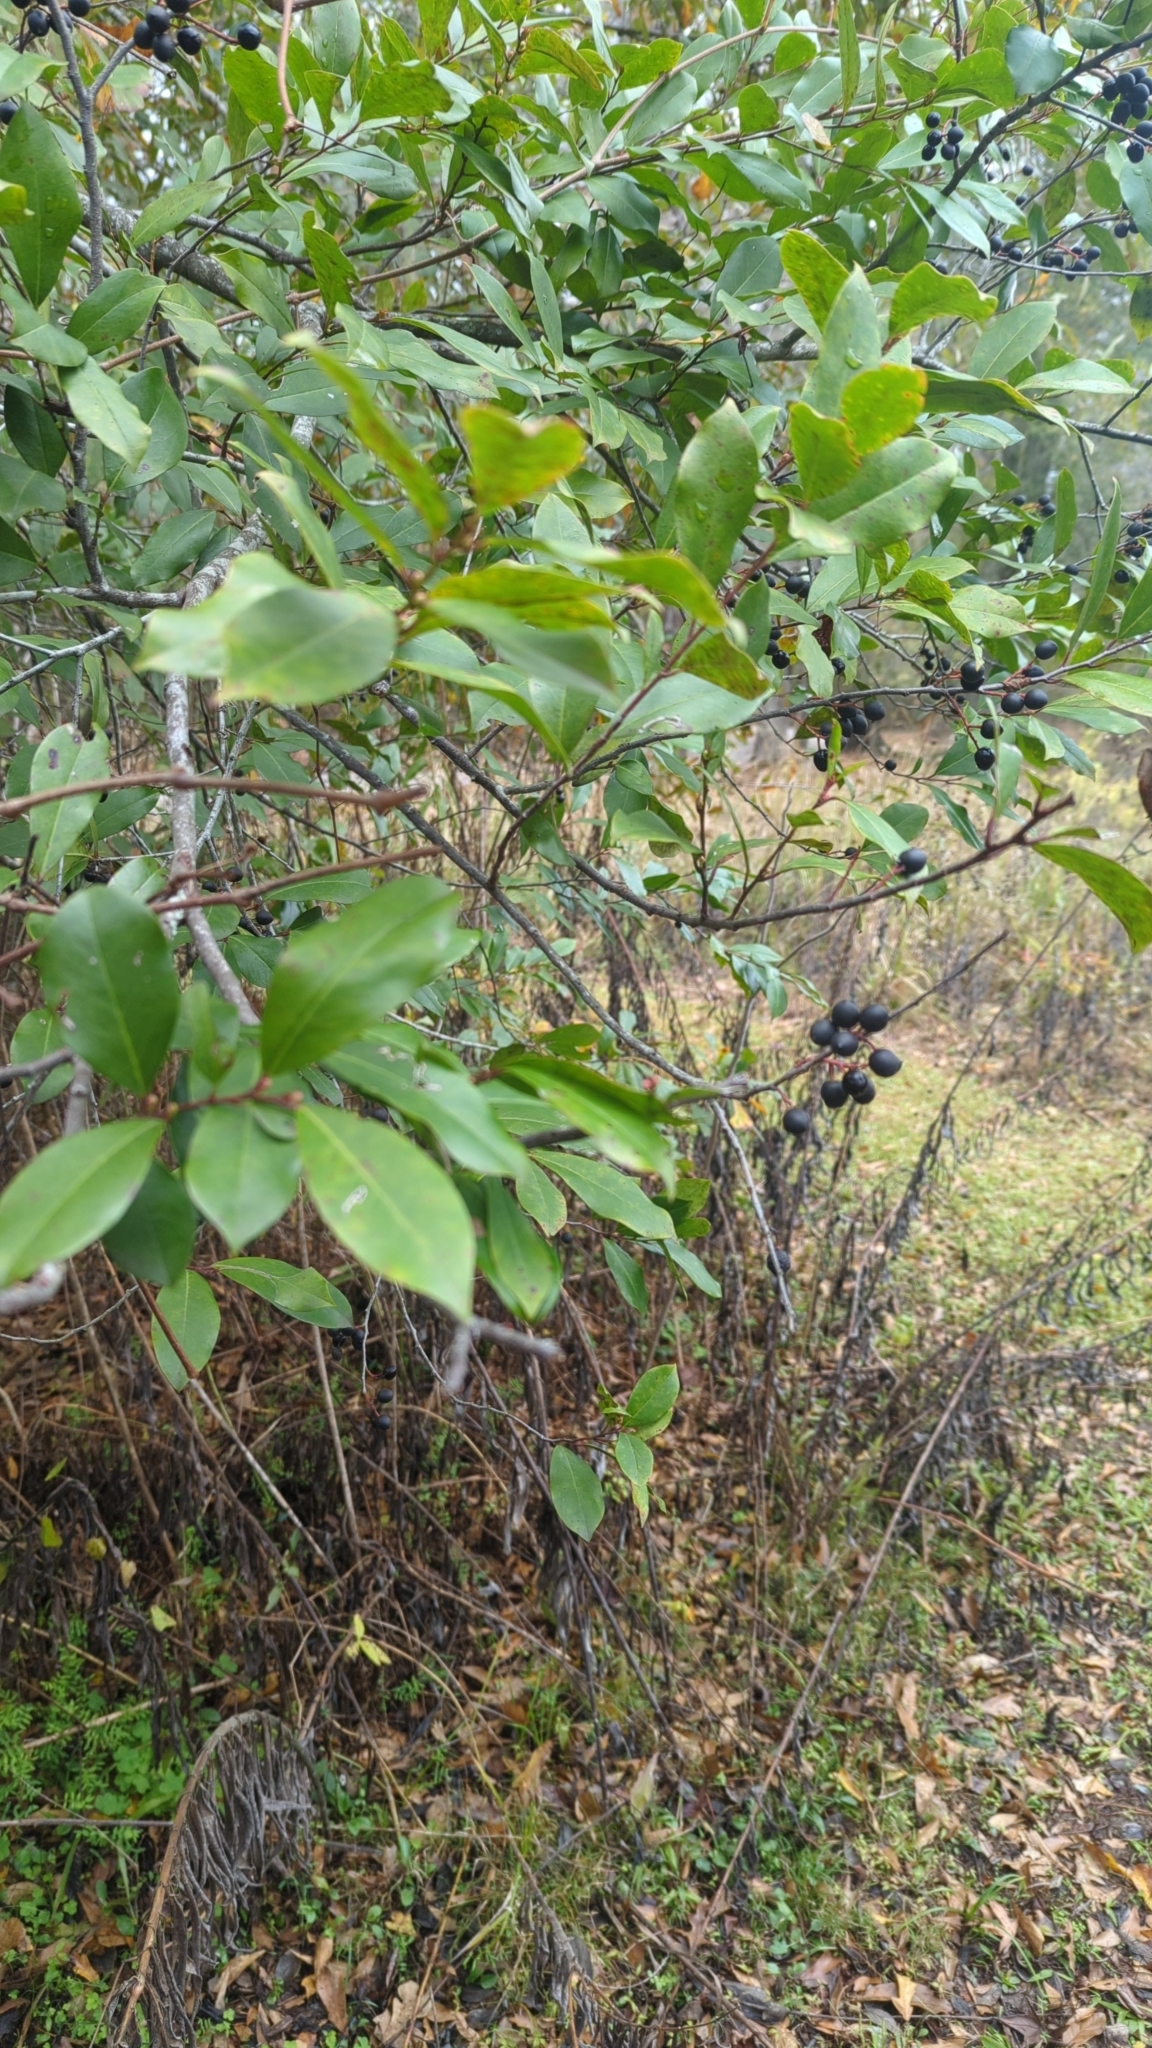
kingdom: Plantae
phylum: Tracheophyta
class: Magnoliopsida
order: Rosales
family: Rosaceae
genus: Prunus
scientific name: Prunus caroliniana
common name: Carolina laurel cherry
